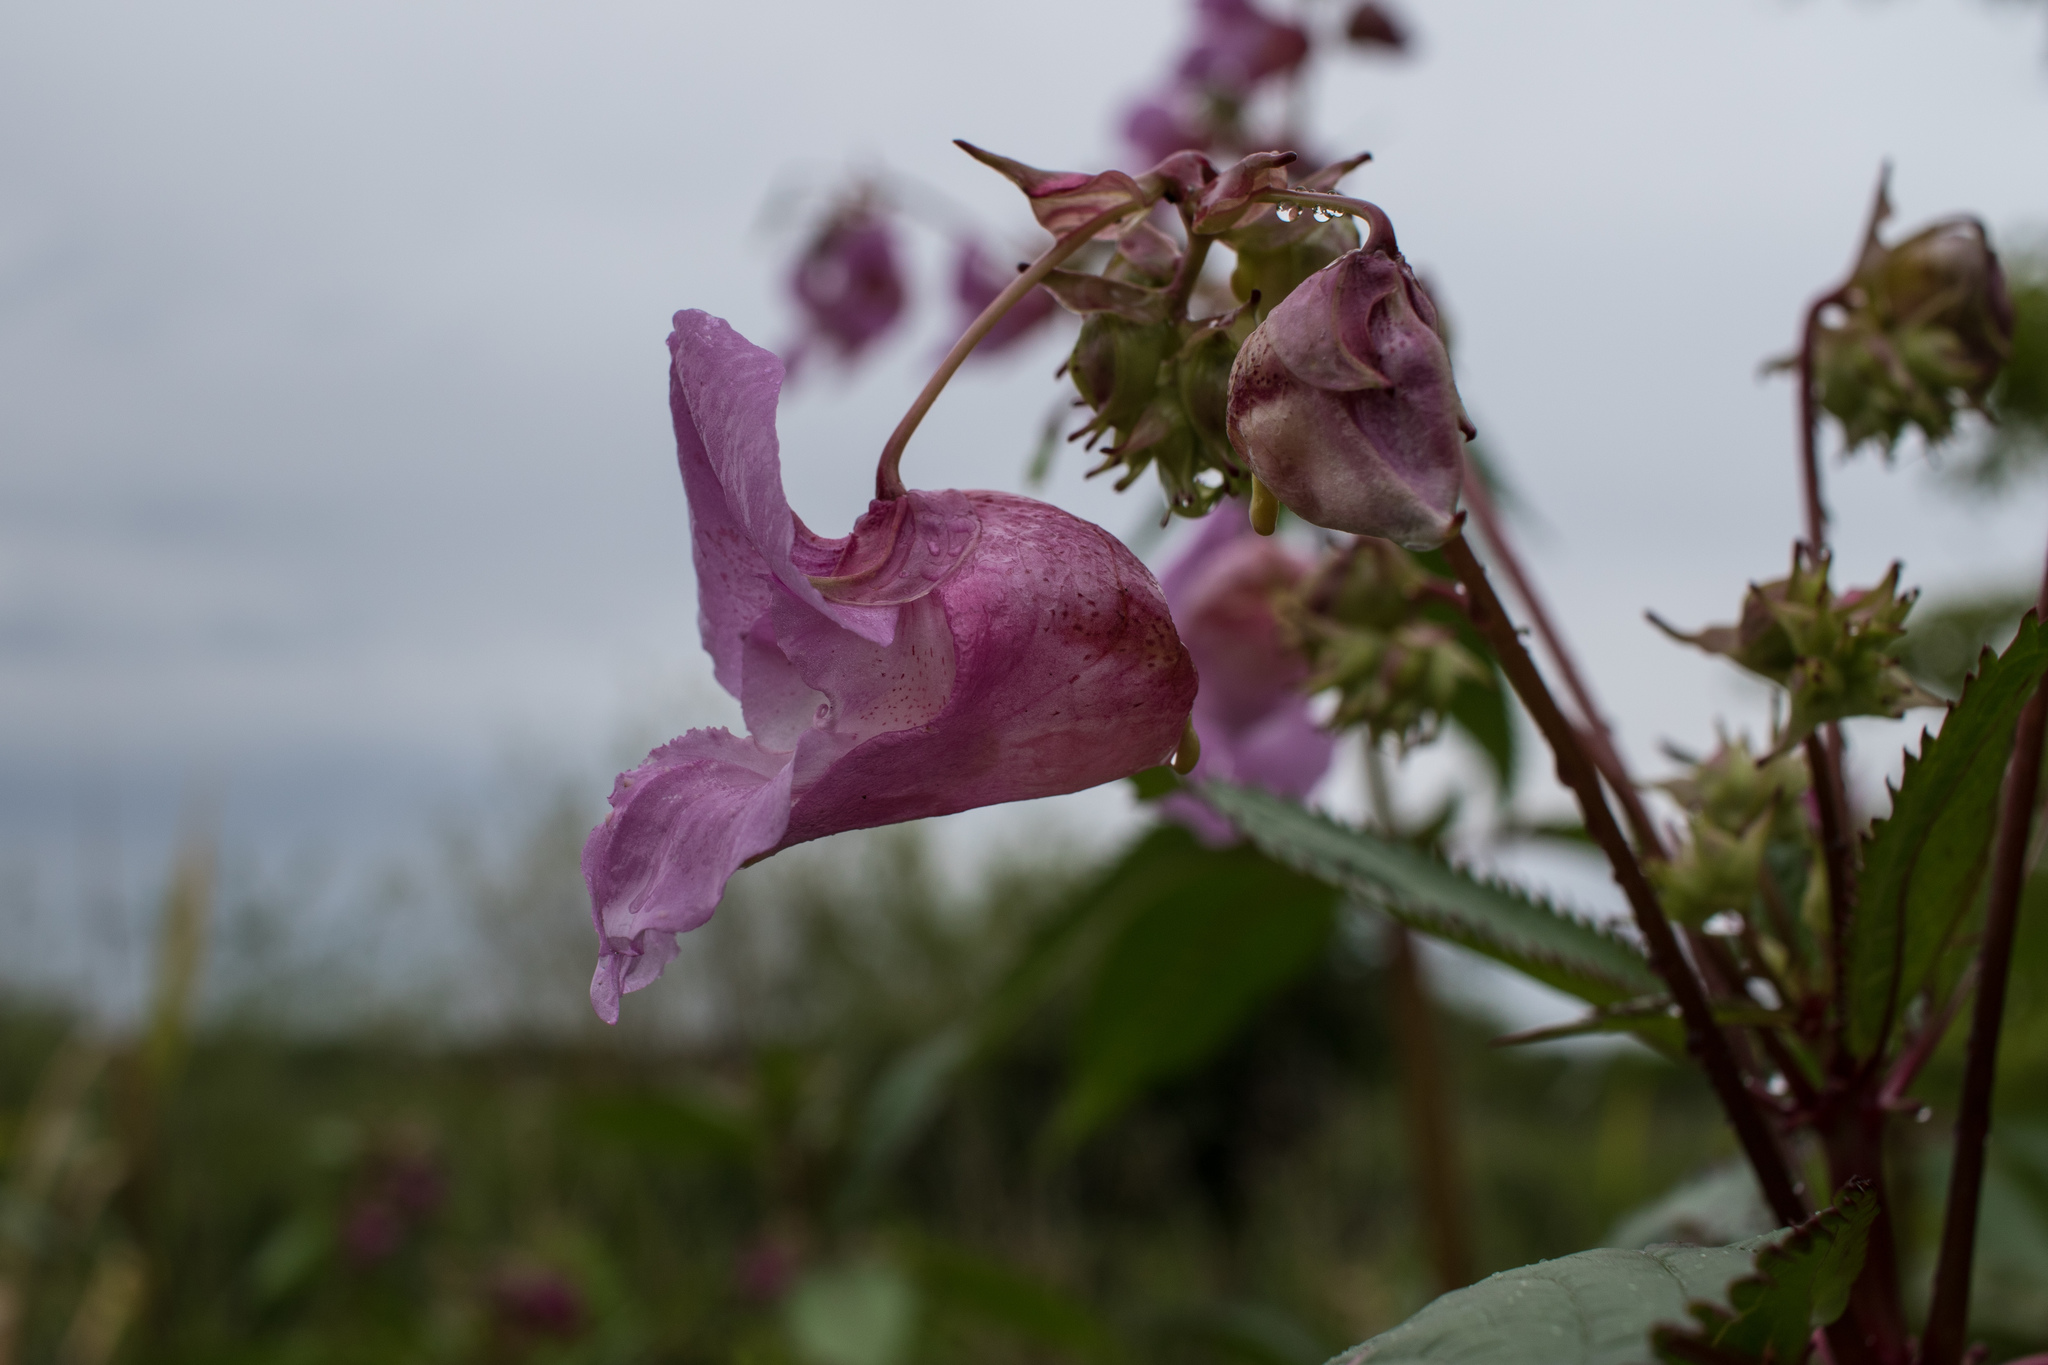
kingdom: Plantae
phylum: Tracheophyta
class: Magnoliopsida
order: Ericales
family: Balsaminaceae
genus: Impatiens
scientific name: Impatiens glandulifera
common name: Himalayan balsam
